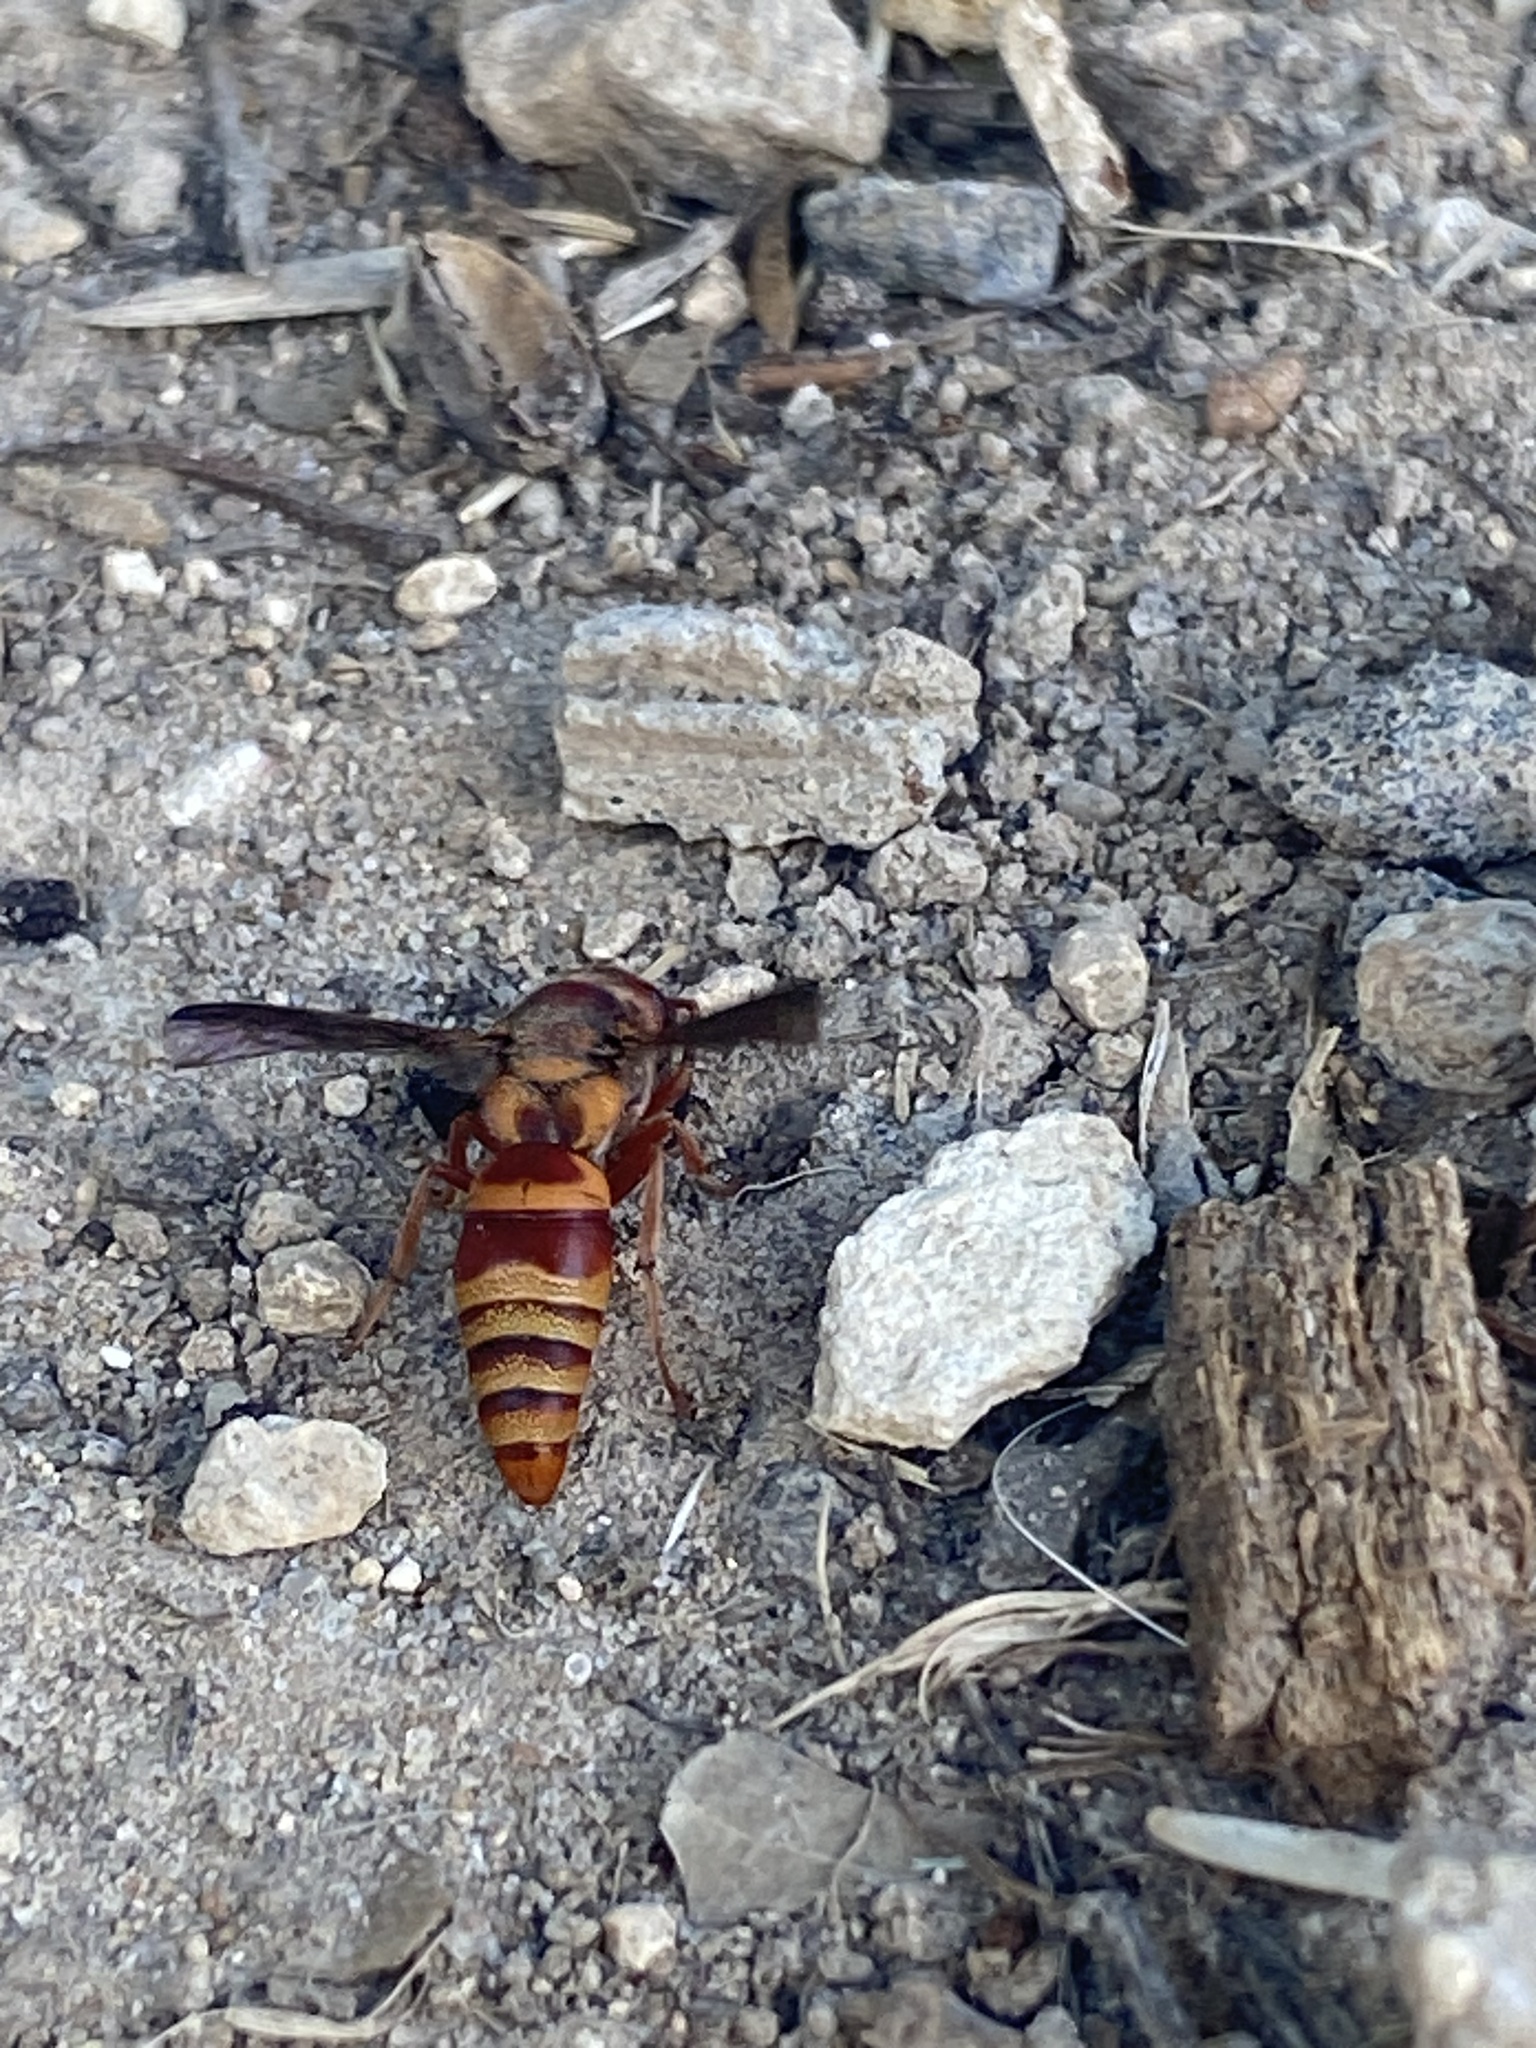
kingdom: Animalia
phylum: Arthropoda
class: Insecta
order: Hymenoptera
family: Eumenidae
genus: Euodynerus
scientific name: Euodynerus pratensis
